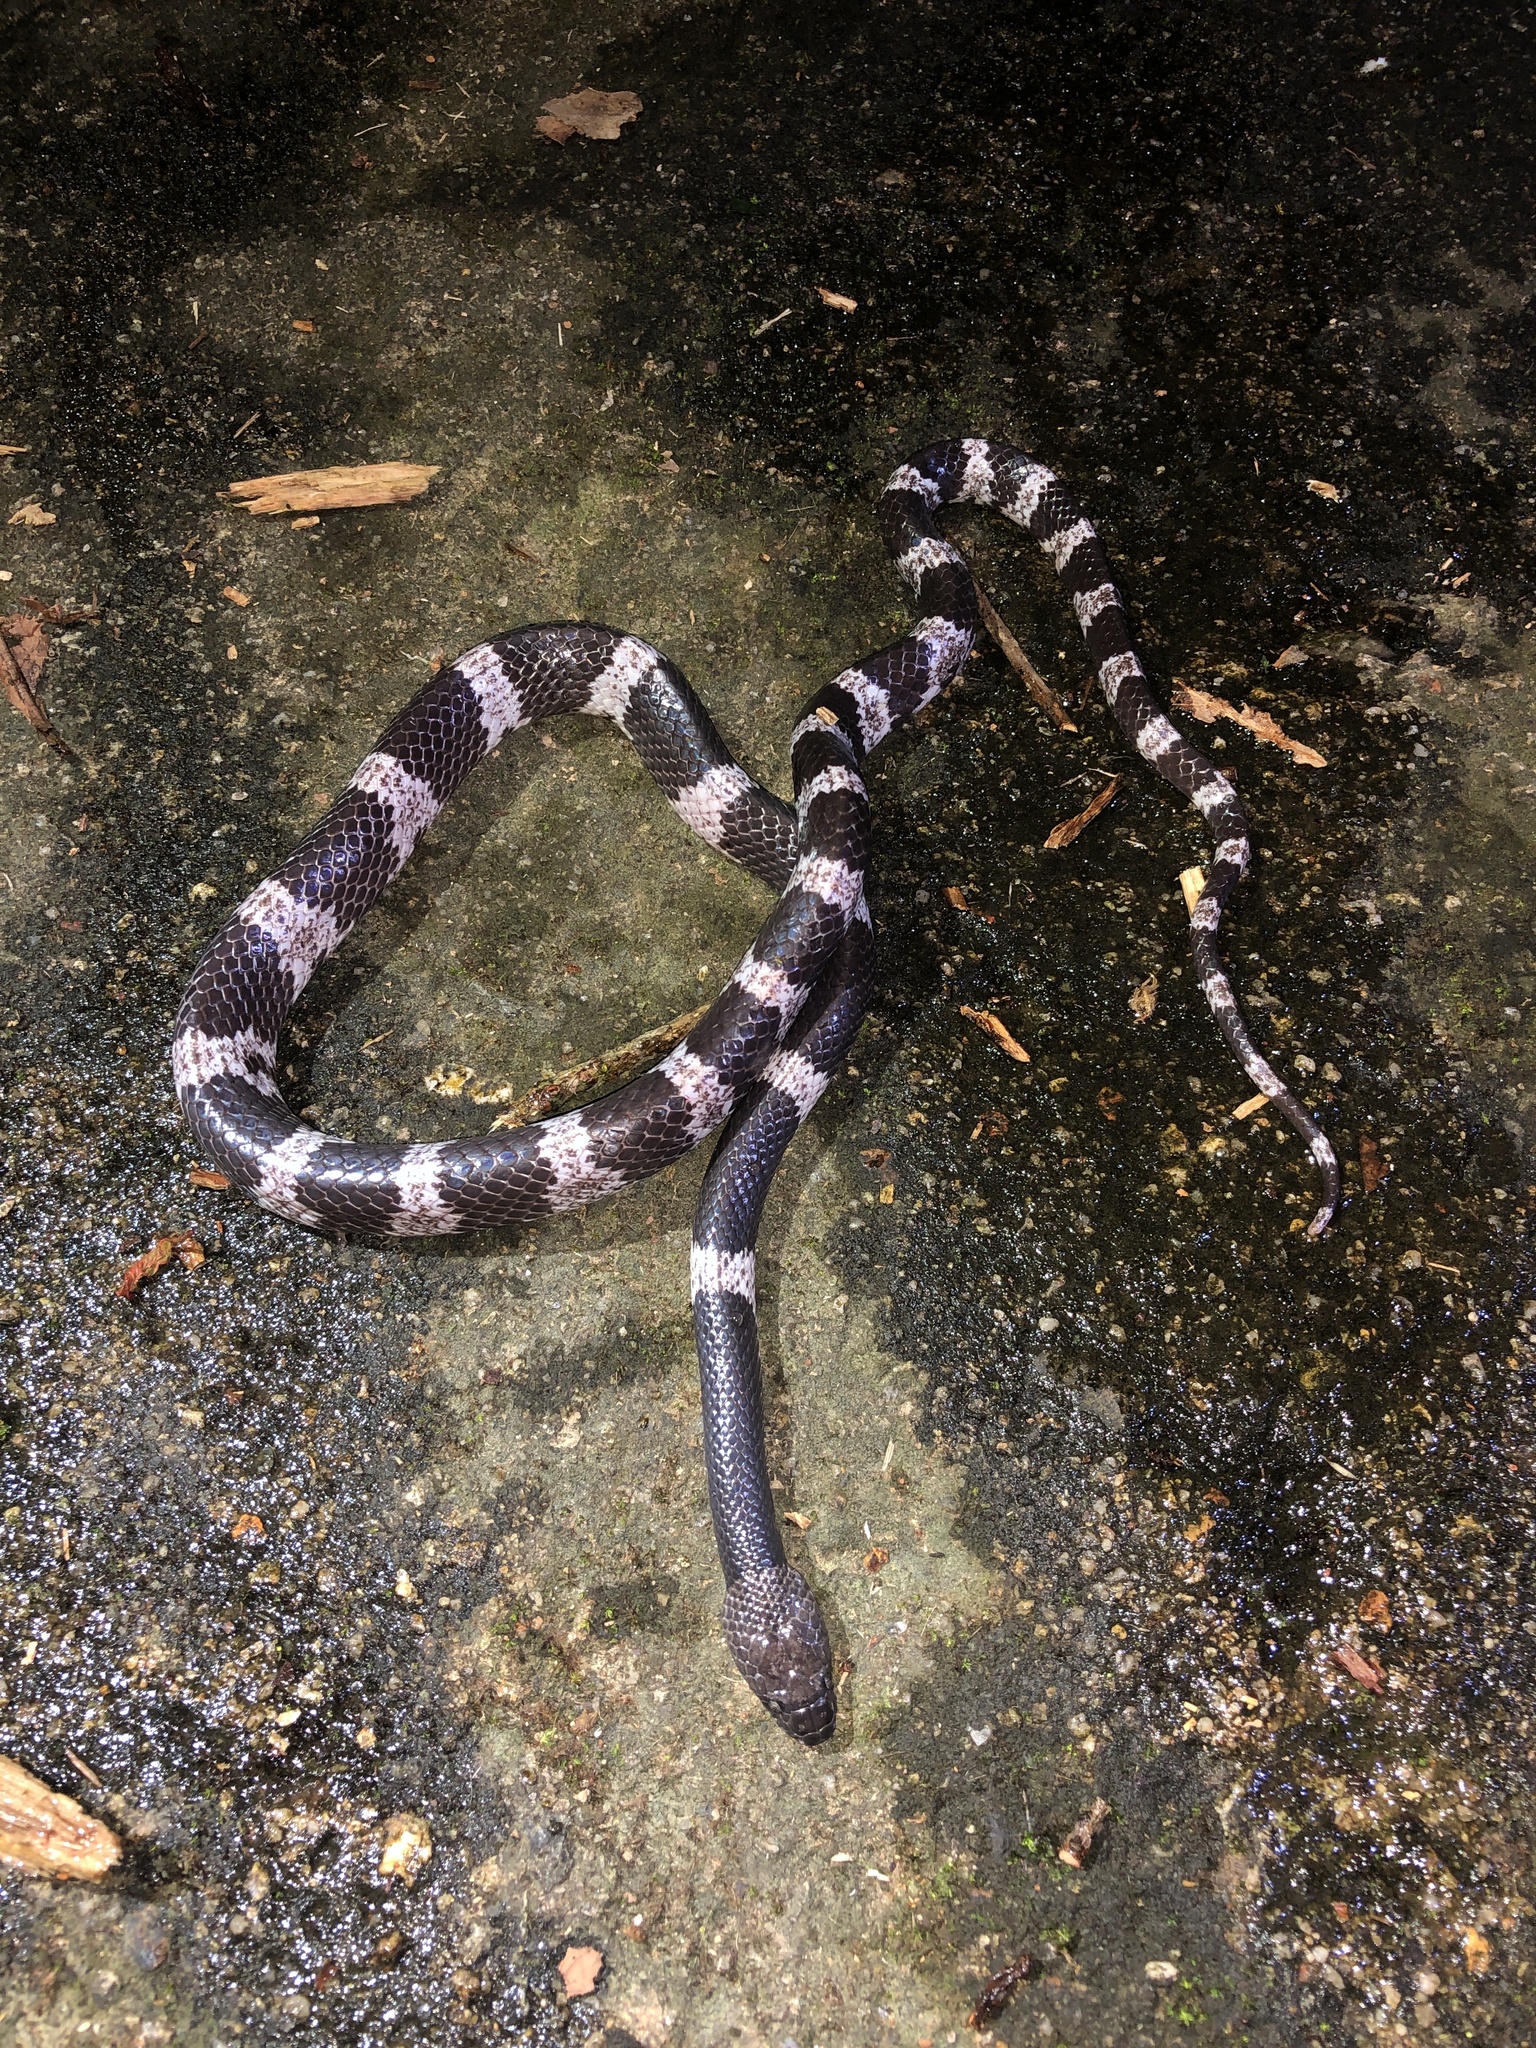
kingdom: Animalia
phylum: Chordata
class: Squamata
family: Colubridae
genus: Lycodon
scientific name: Lycodon futsingensis
